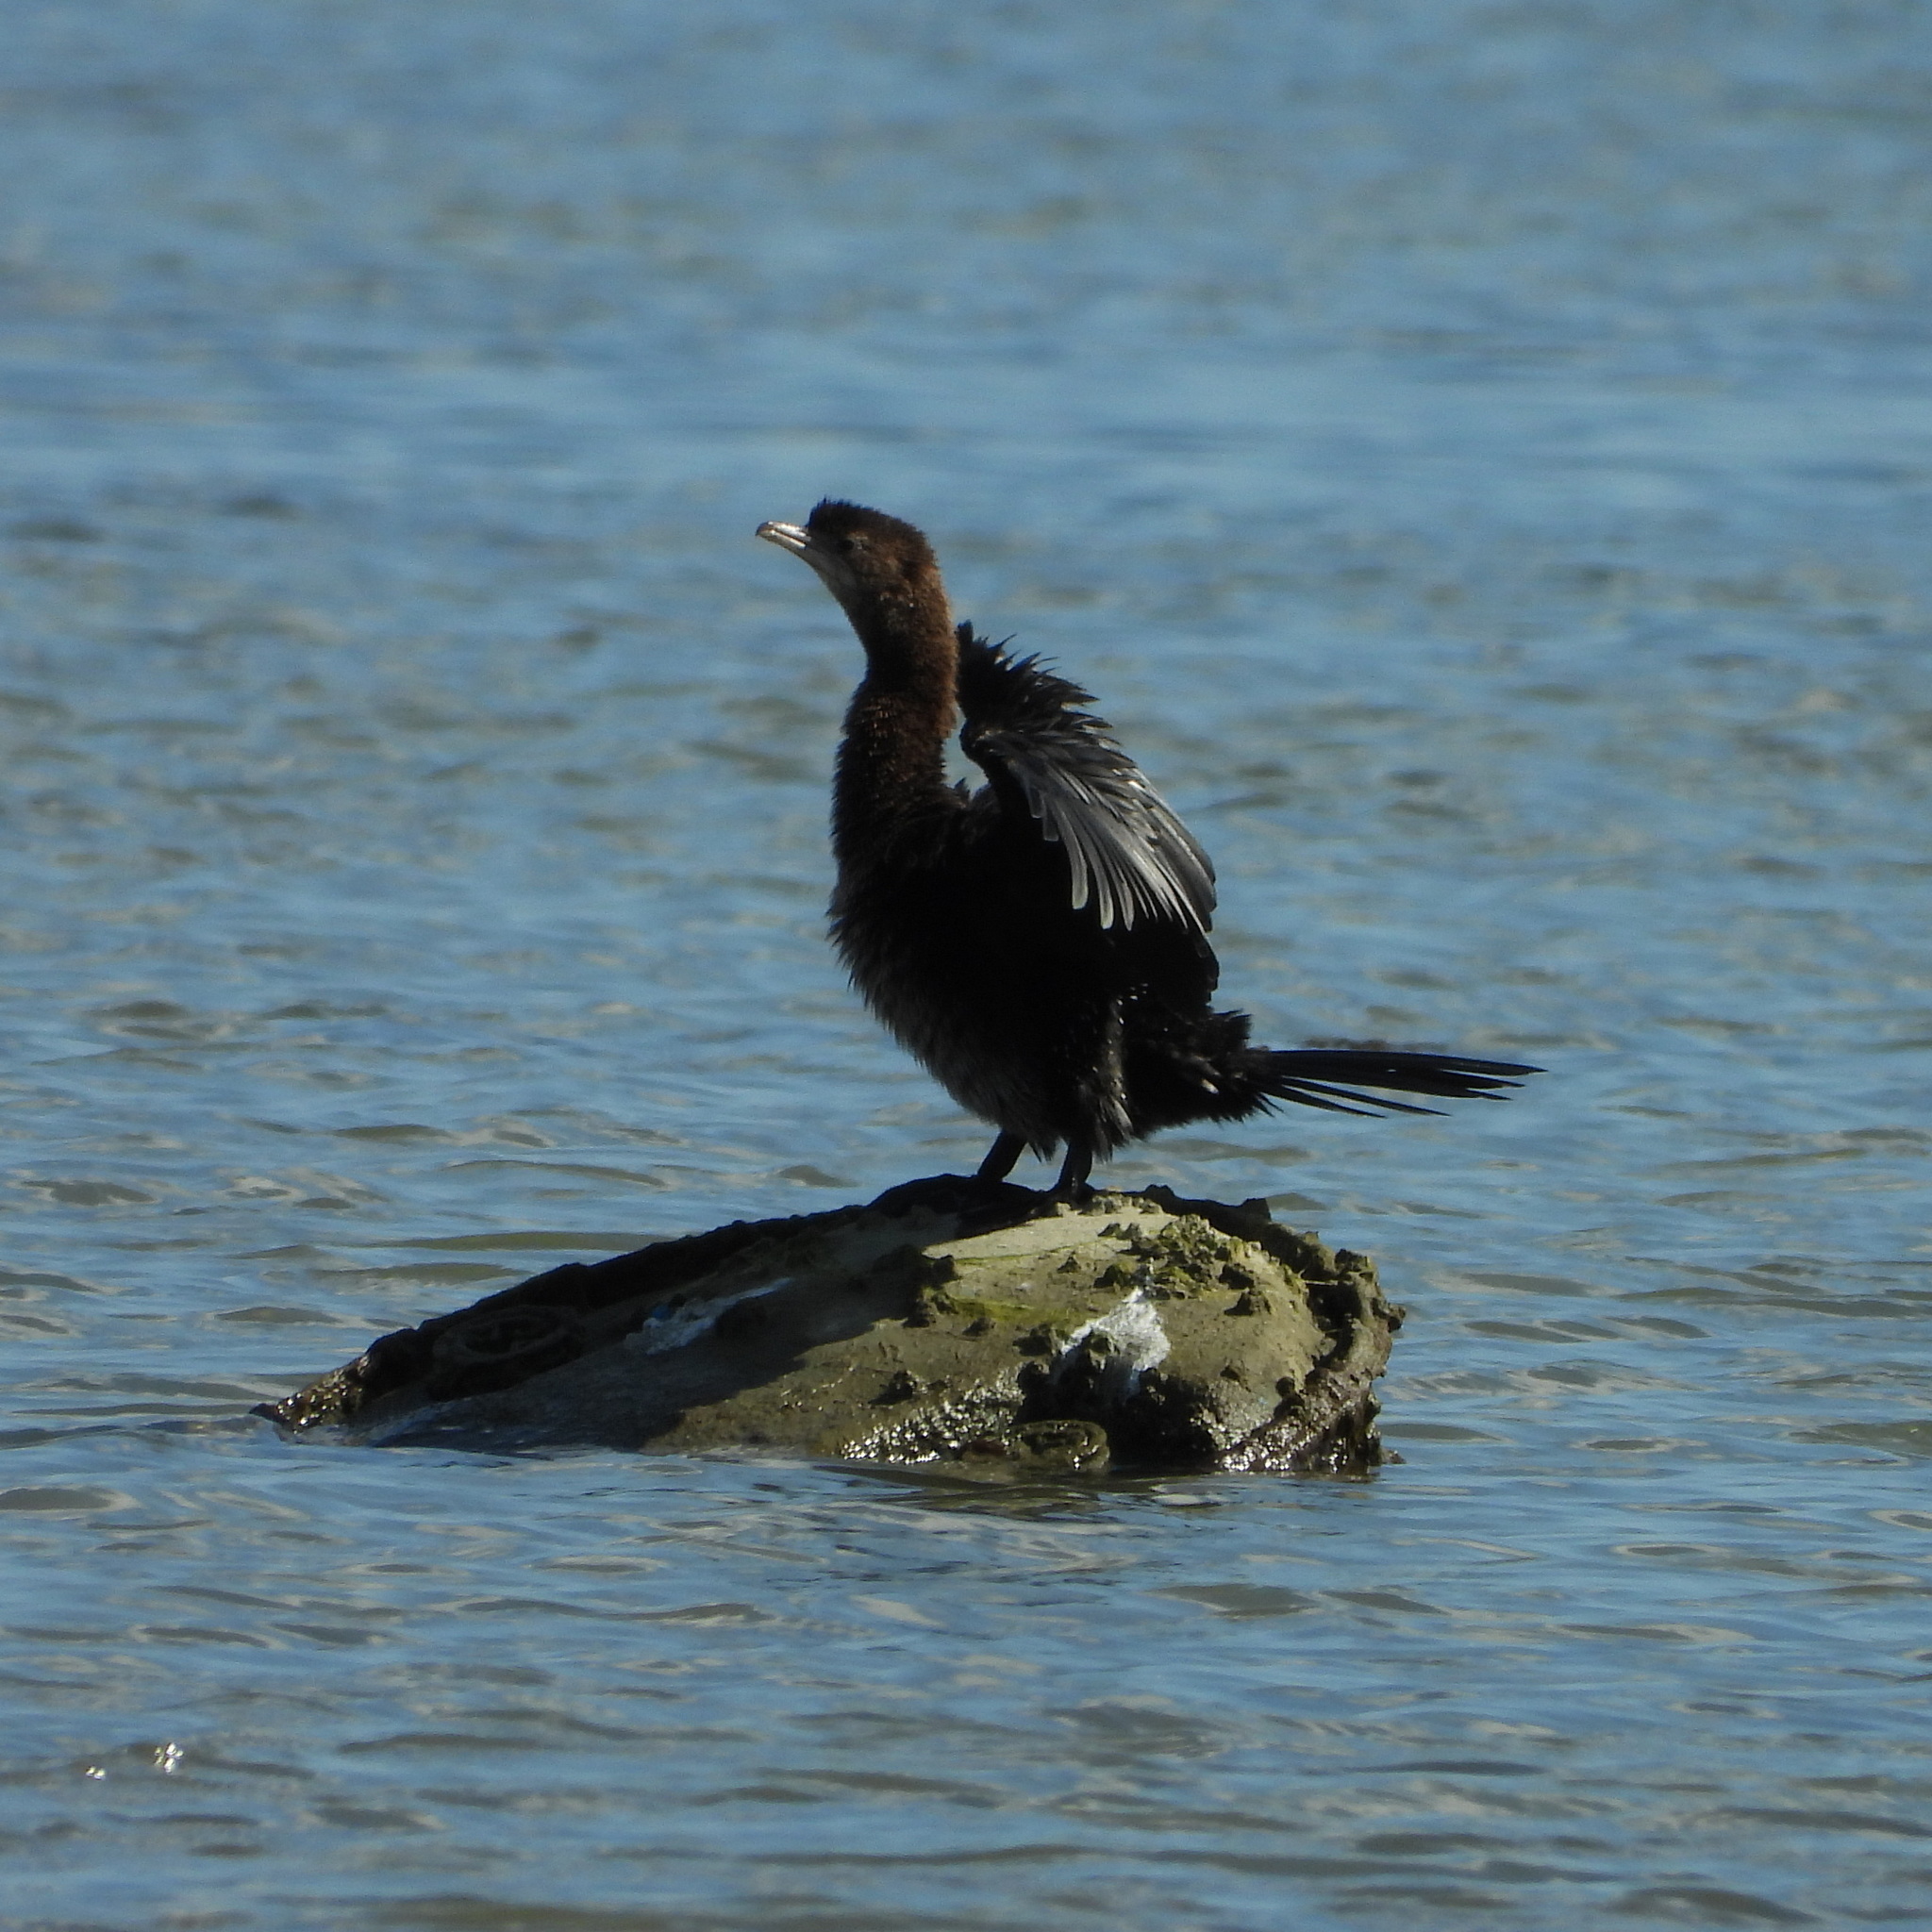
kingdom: Animalia
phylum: Chordata
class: Aves
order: Suliformes
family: Phalacrocoracidae
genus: Microcarbo
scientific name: Microcarbo pygmaeus
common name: Pygmy cormorant
